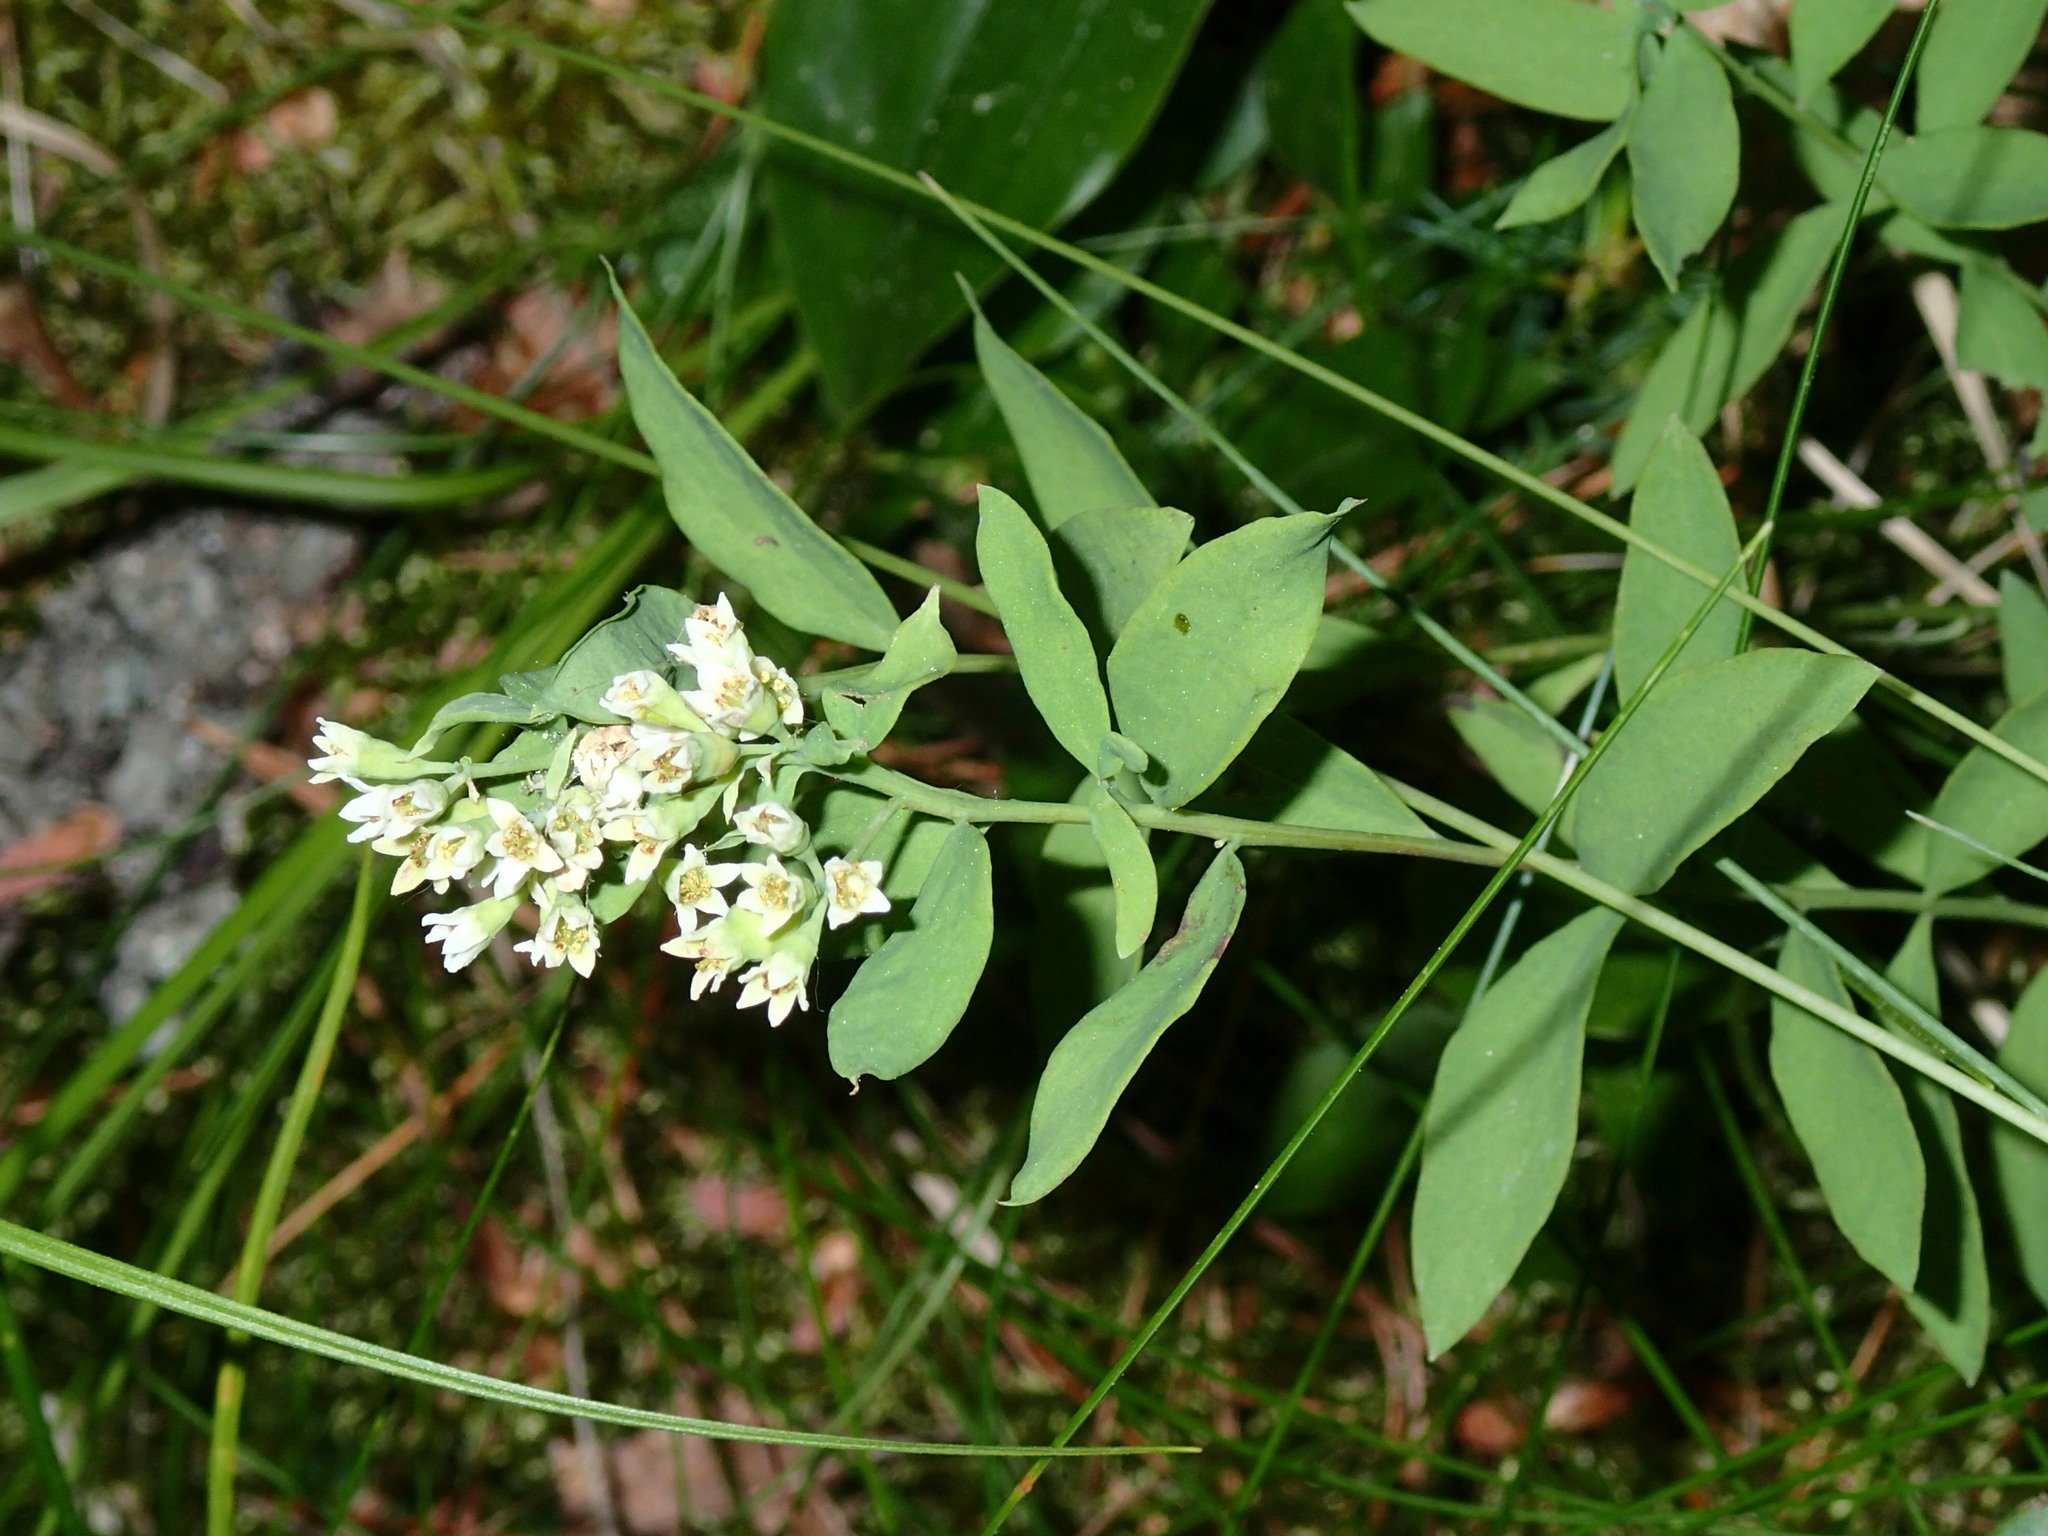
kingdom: Plantae
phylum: Tracheophyta
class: Magnoliopsida
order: Santalales
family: Comandraceae
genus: Comandra
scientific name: Comandra umbellata
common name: Bastard toadflax
